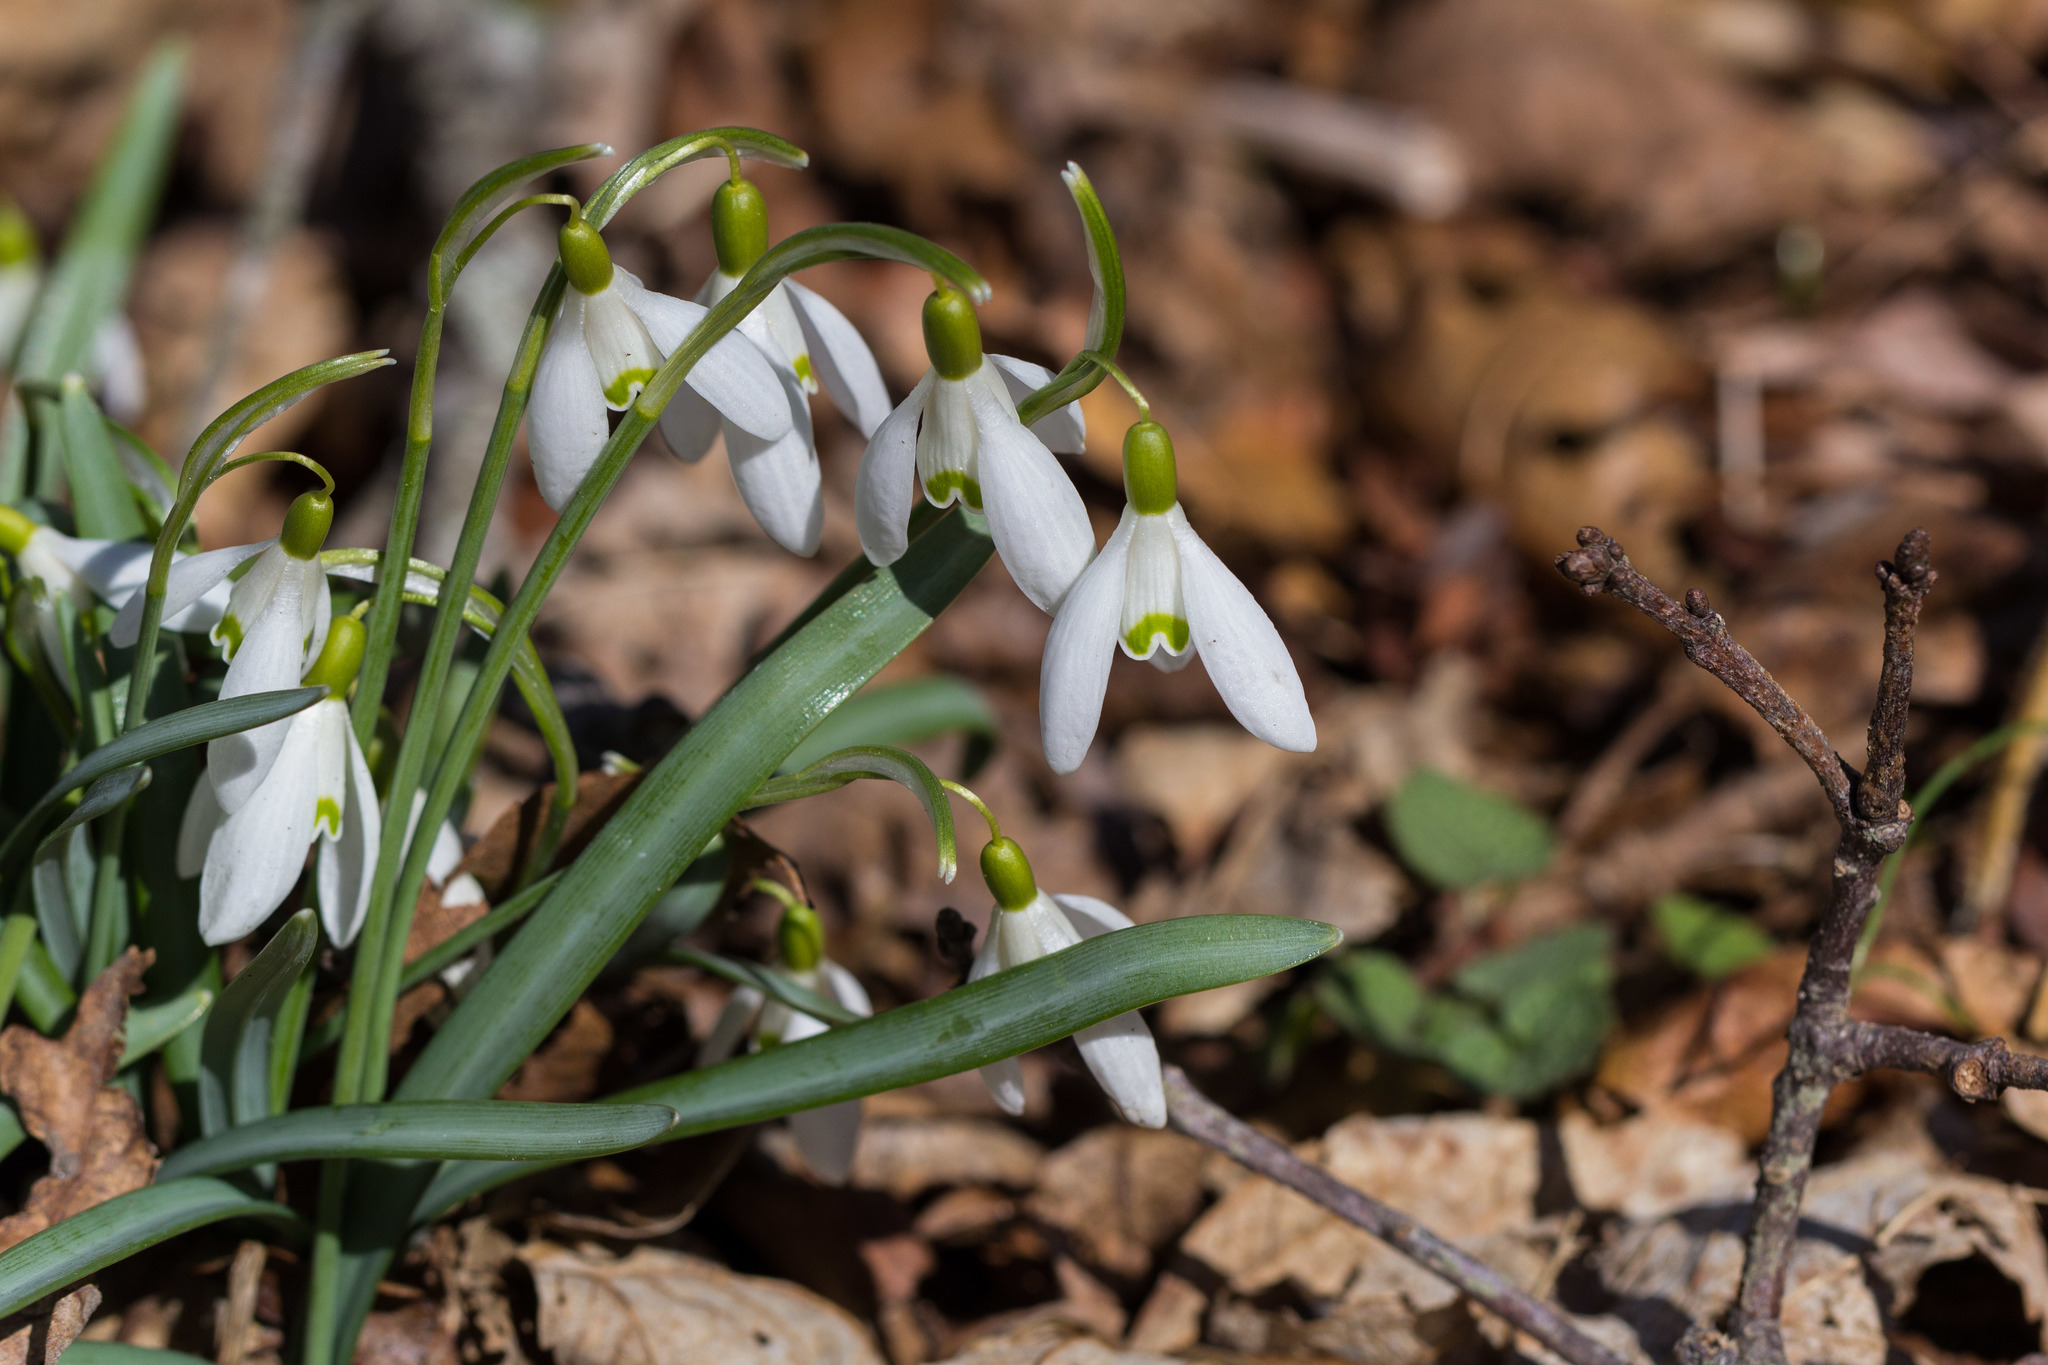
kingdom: Plantae
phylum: Tracheophyta
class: Liliopsida
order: Asparagales
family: Amaryllidaceae
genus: Galanthus
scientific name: Galanthus nivalis
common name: Snowdrop
